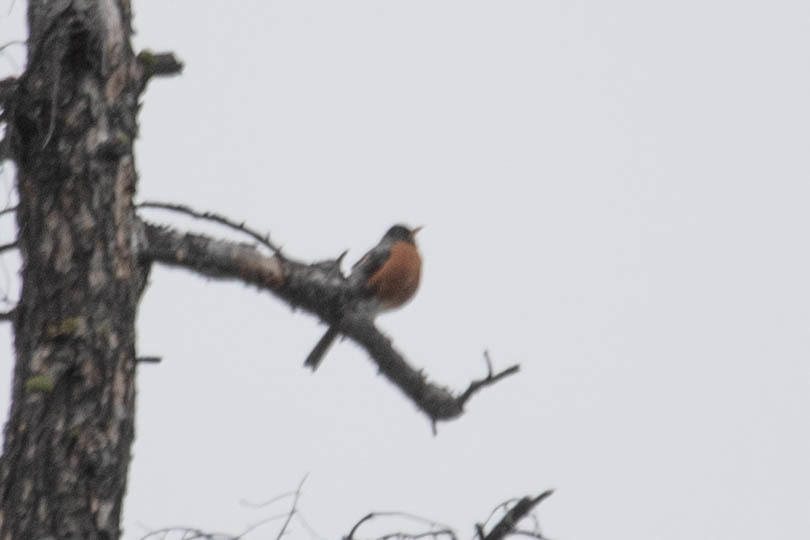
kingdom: Animalia
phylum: Chordata
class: Aves
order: Passeriformes
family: Turdidae
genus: Turdus
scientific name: Turdus migratorius
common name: American robin
